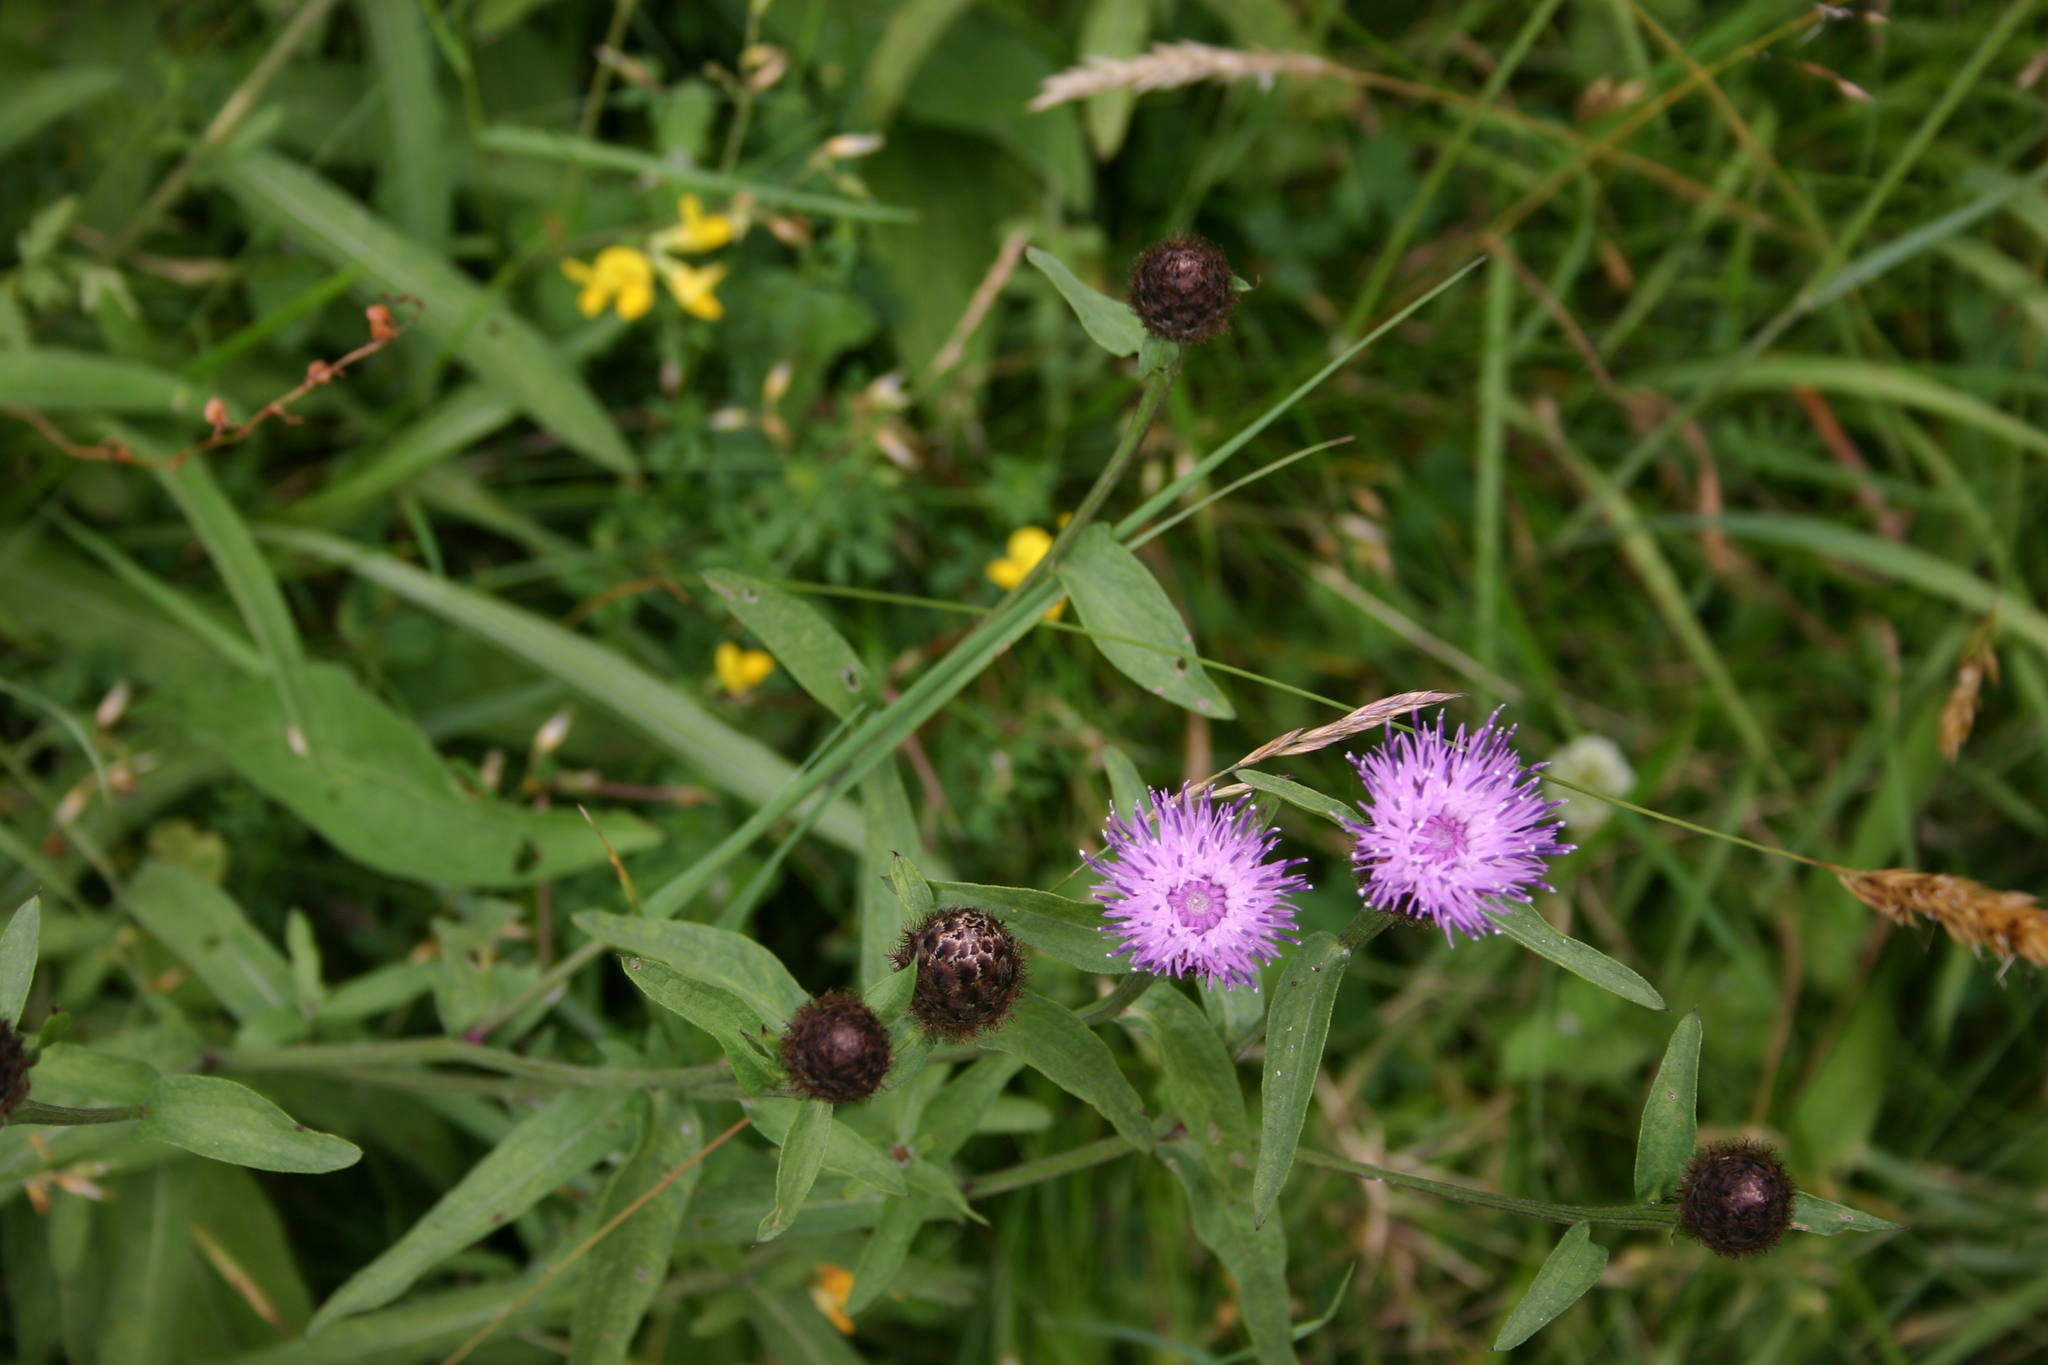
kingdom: Plantae
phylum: Tracheophyta
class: Magnoliopsida
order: Asterales
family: Asteraceae
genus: Centaurea
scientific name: Centaurea nigra
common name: Lesser knapweed
